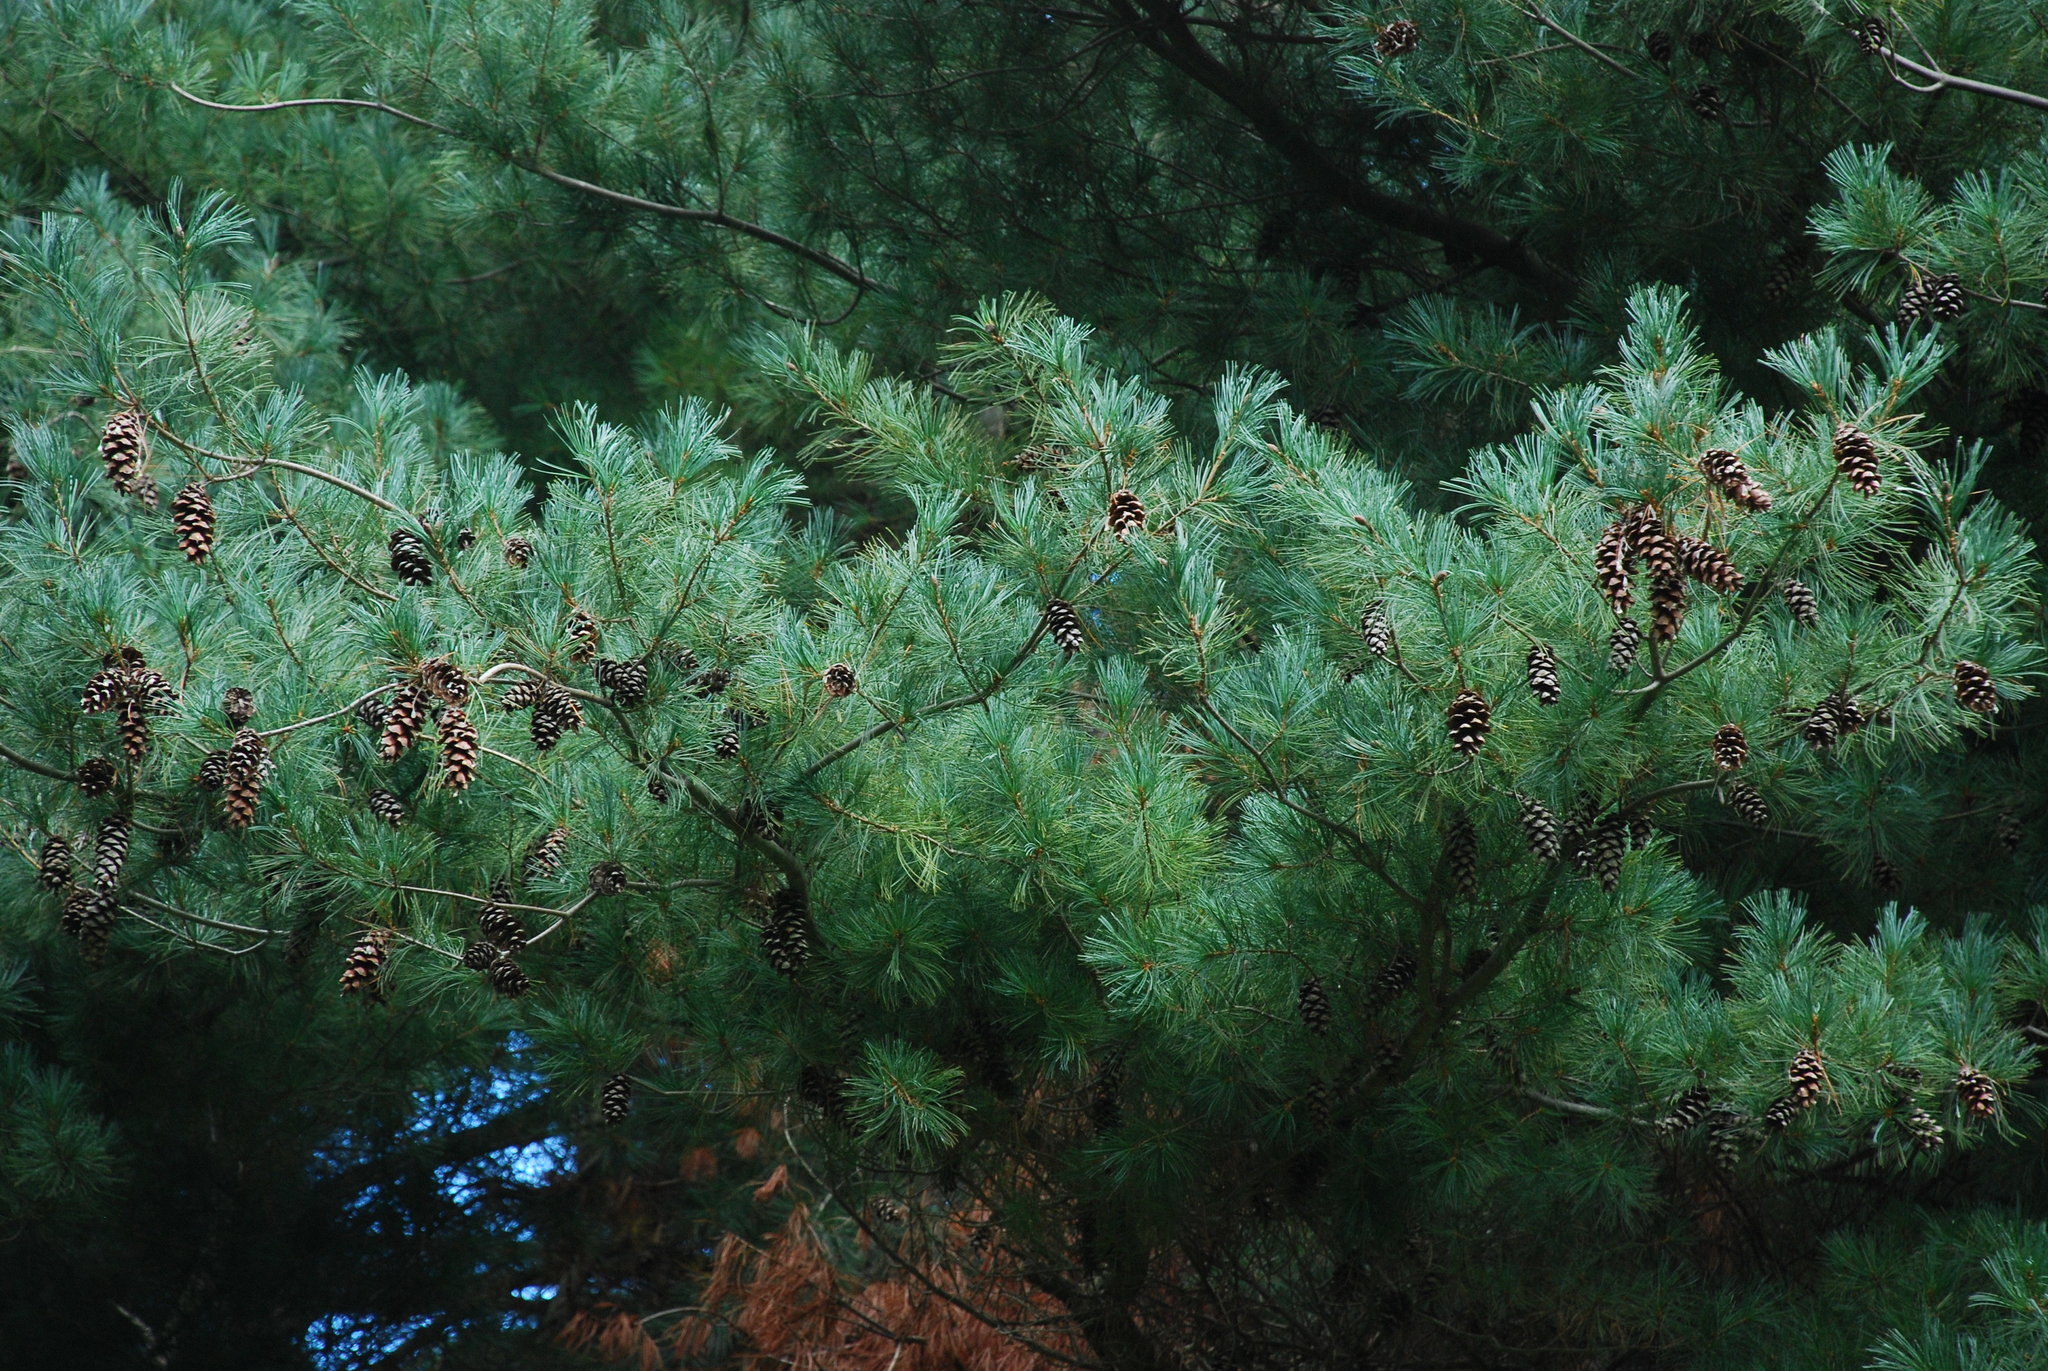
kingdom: Plantae
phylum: Tracheophyta
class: Pinopsida
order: Pinales
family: Pinaceae
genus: Pinus
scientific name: Pinus hunnewellii
